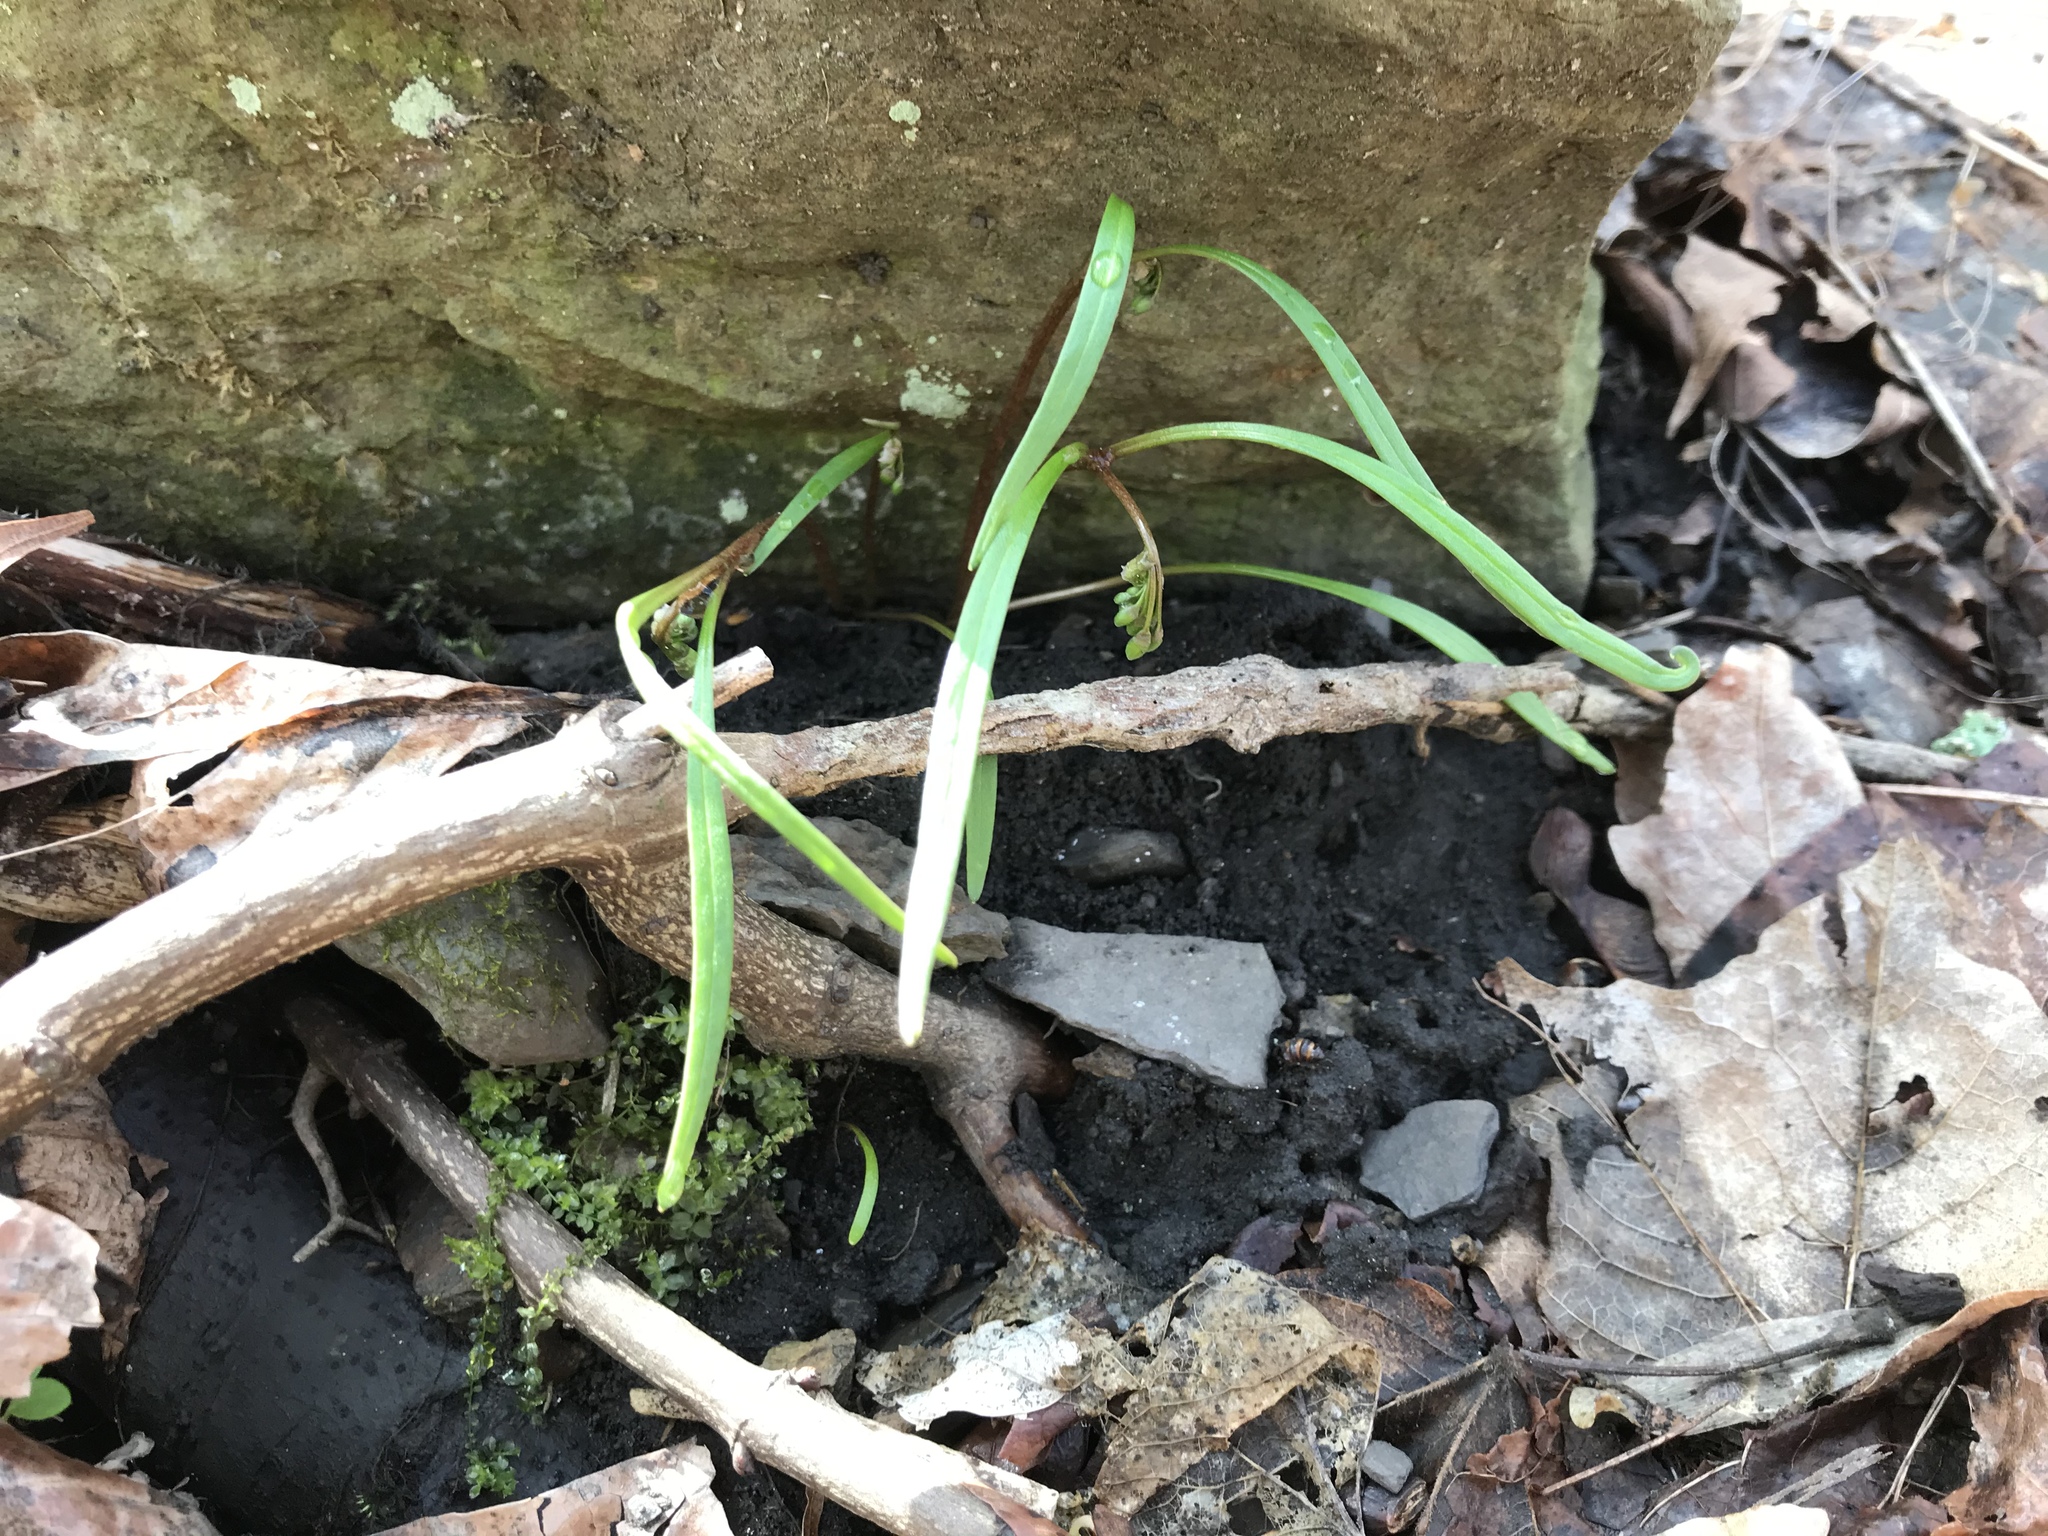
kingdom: Plantae
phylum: Tracheophyta
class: Magnoliopsida
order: Caryophyllales
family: Montiaceae
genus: Claytonia
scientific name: Claytonia virginica
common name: Virginia springbeauty
